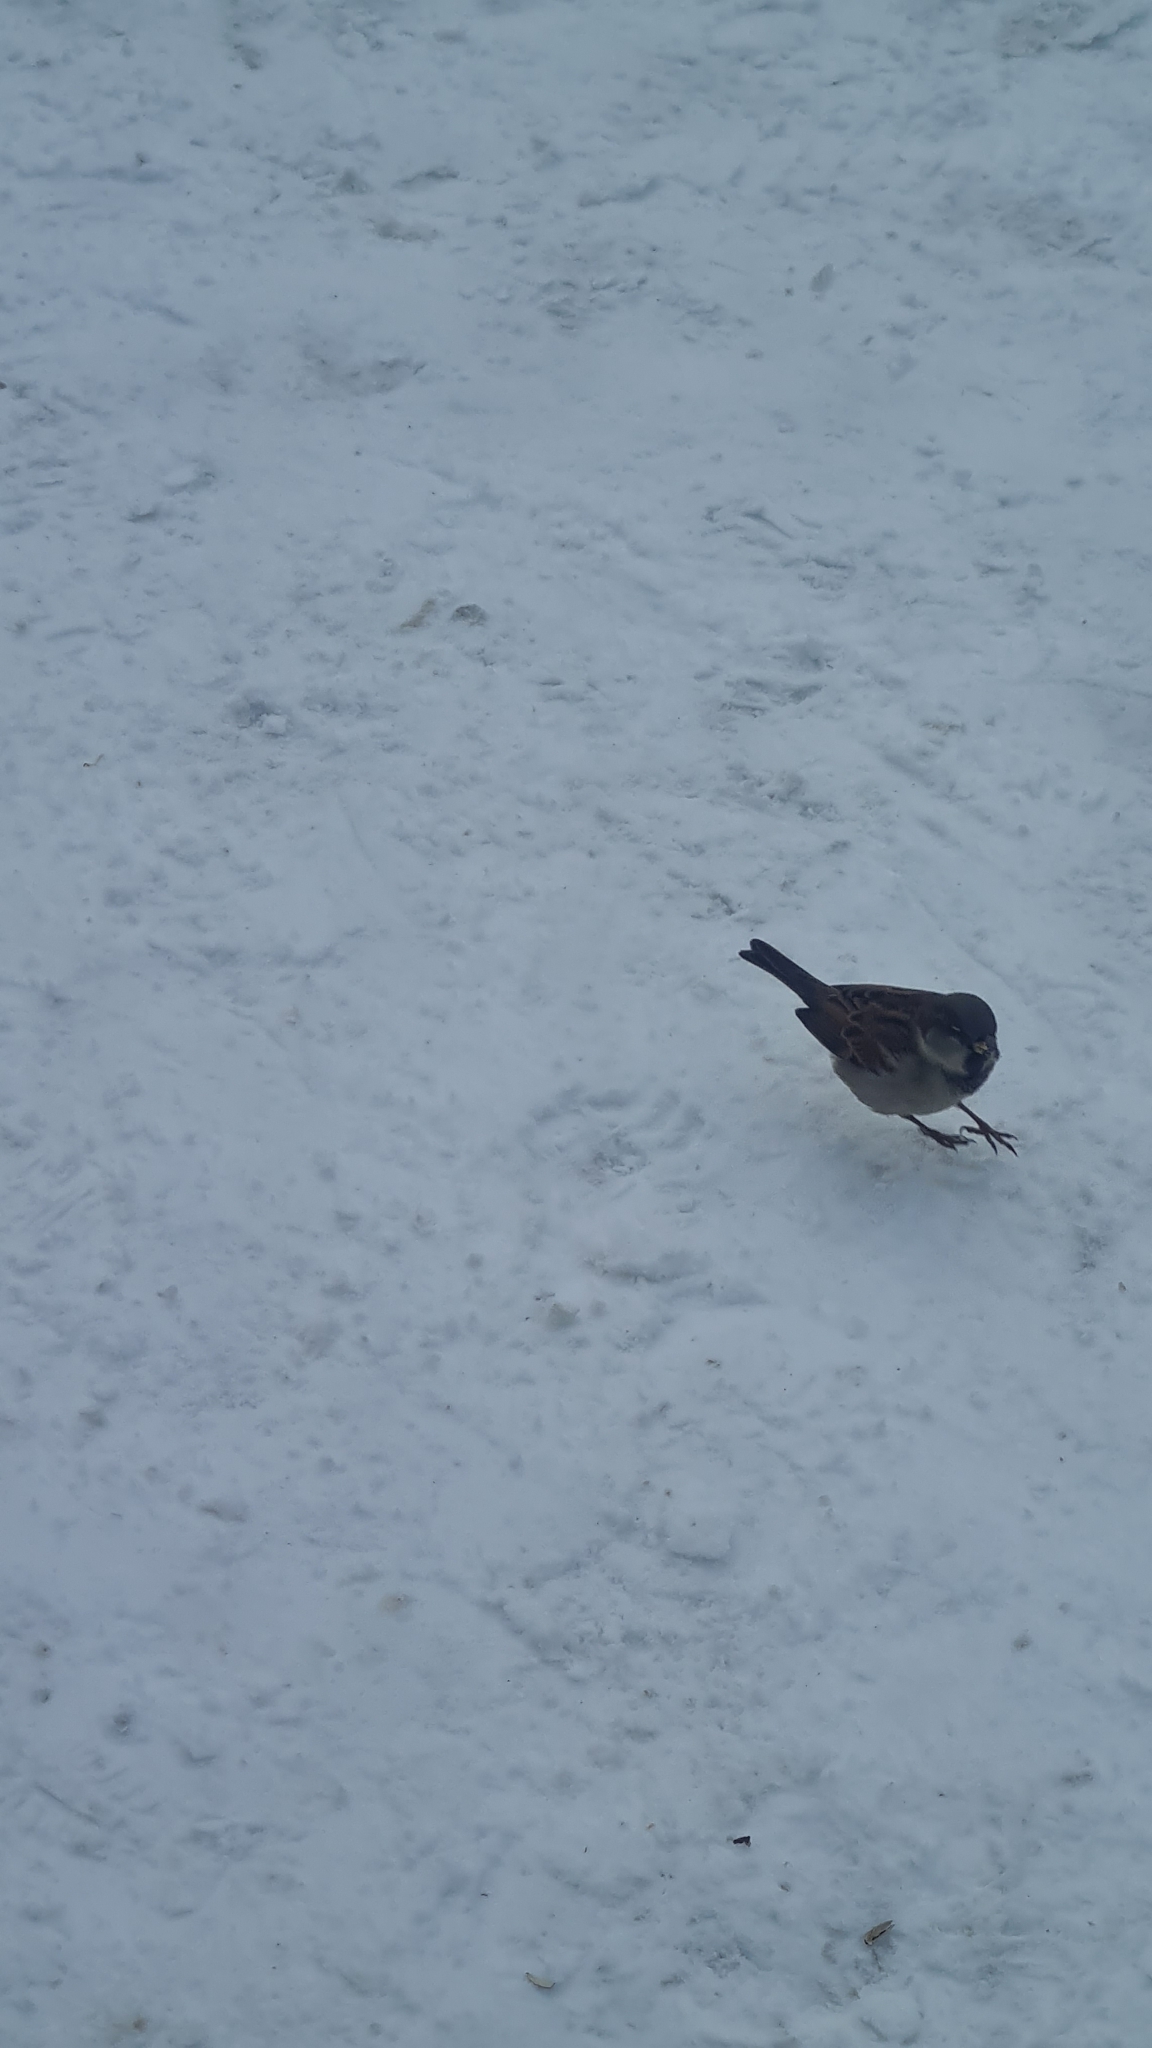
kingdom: Animalia
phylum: Chordata
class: Aves
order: Passeriformes
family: Passeridae
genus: Passer
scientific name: Passer domesticus
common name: House sparrow
